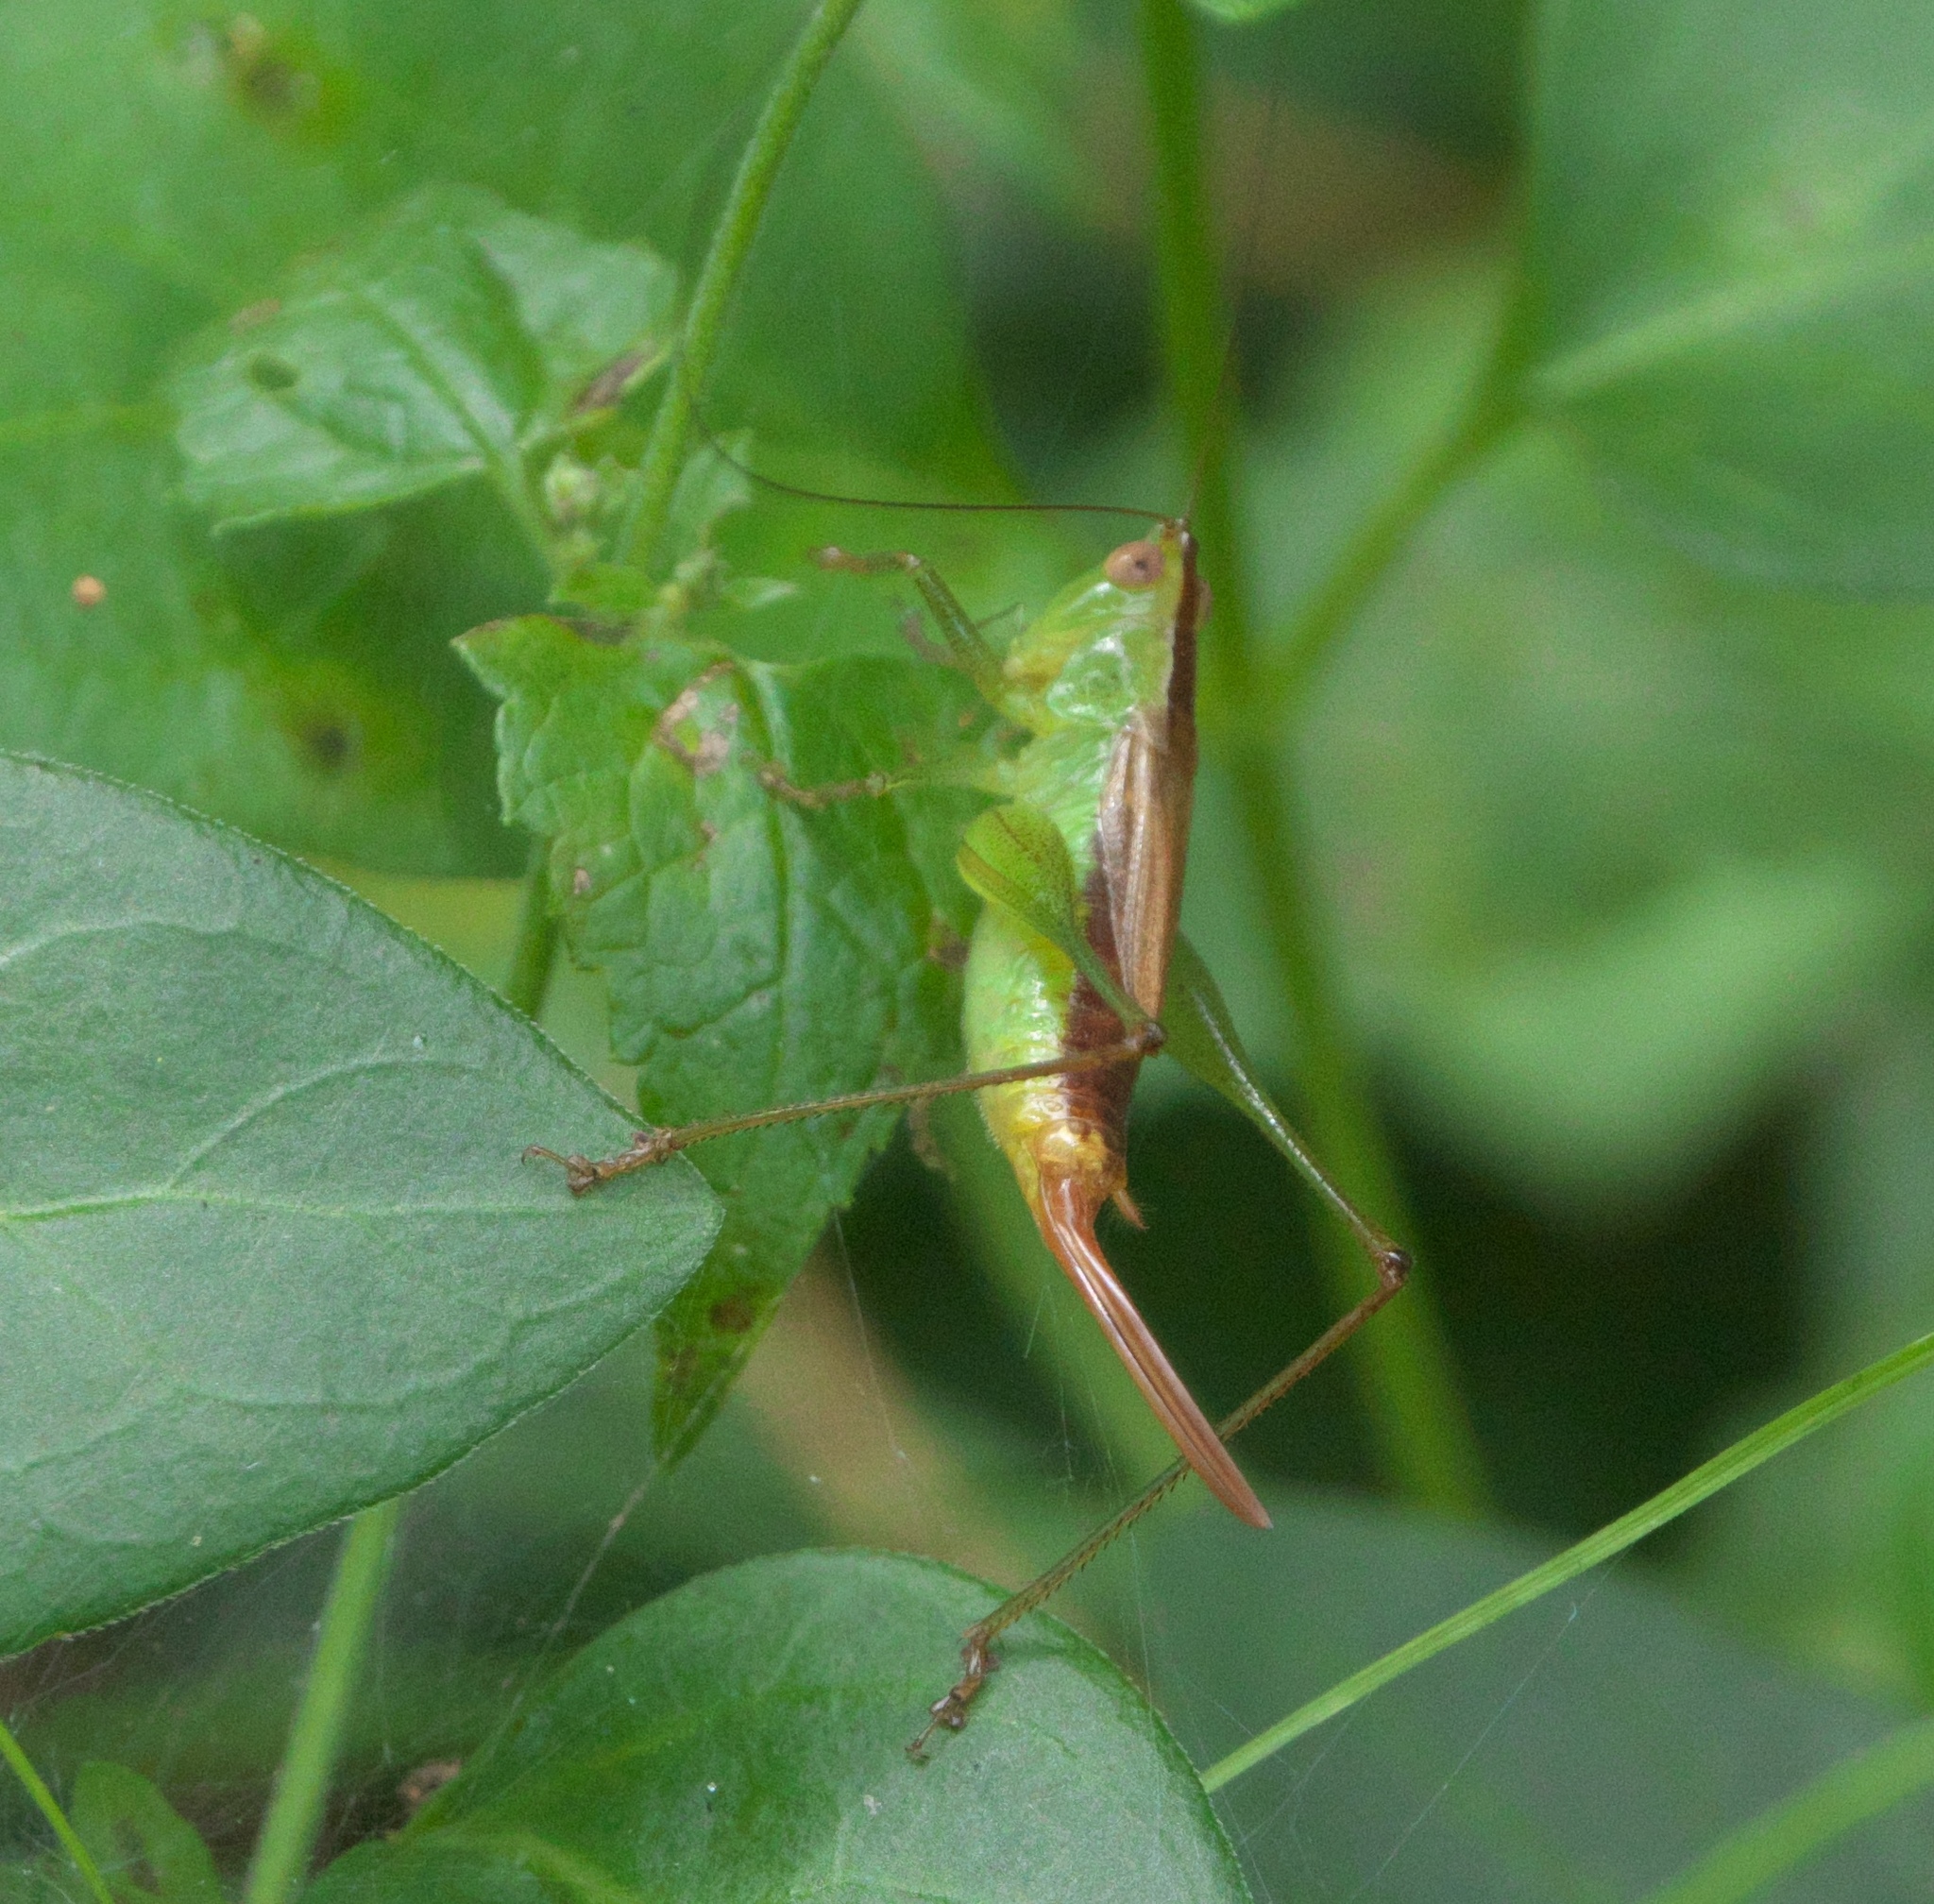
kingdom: Animalia
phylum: Arthropoda
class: Insecta
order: Orthoptera
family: Tettigoniidae
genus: Conocephalus
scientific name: Conocephalus brevipennis
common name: Short-winged meadow katydid
